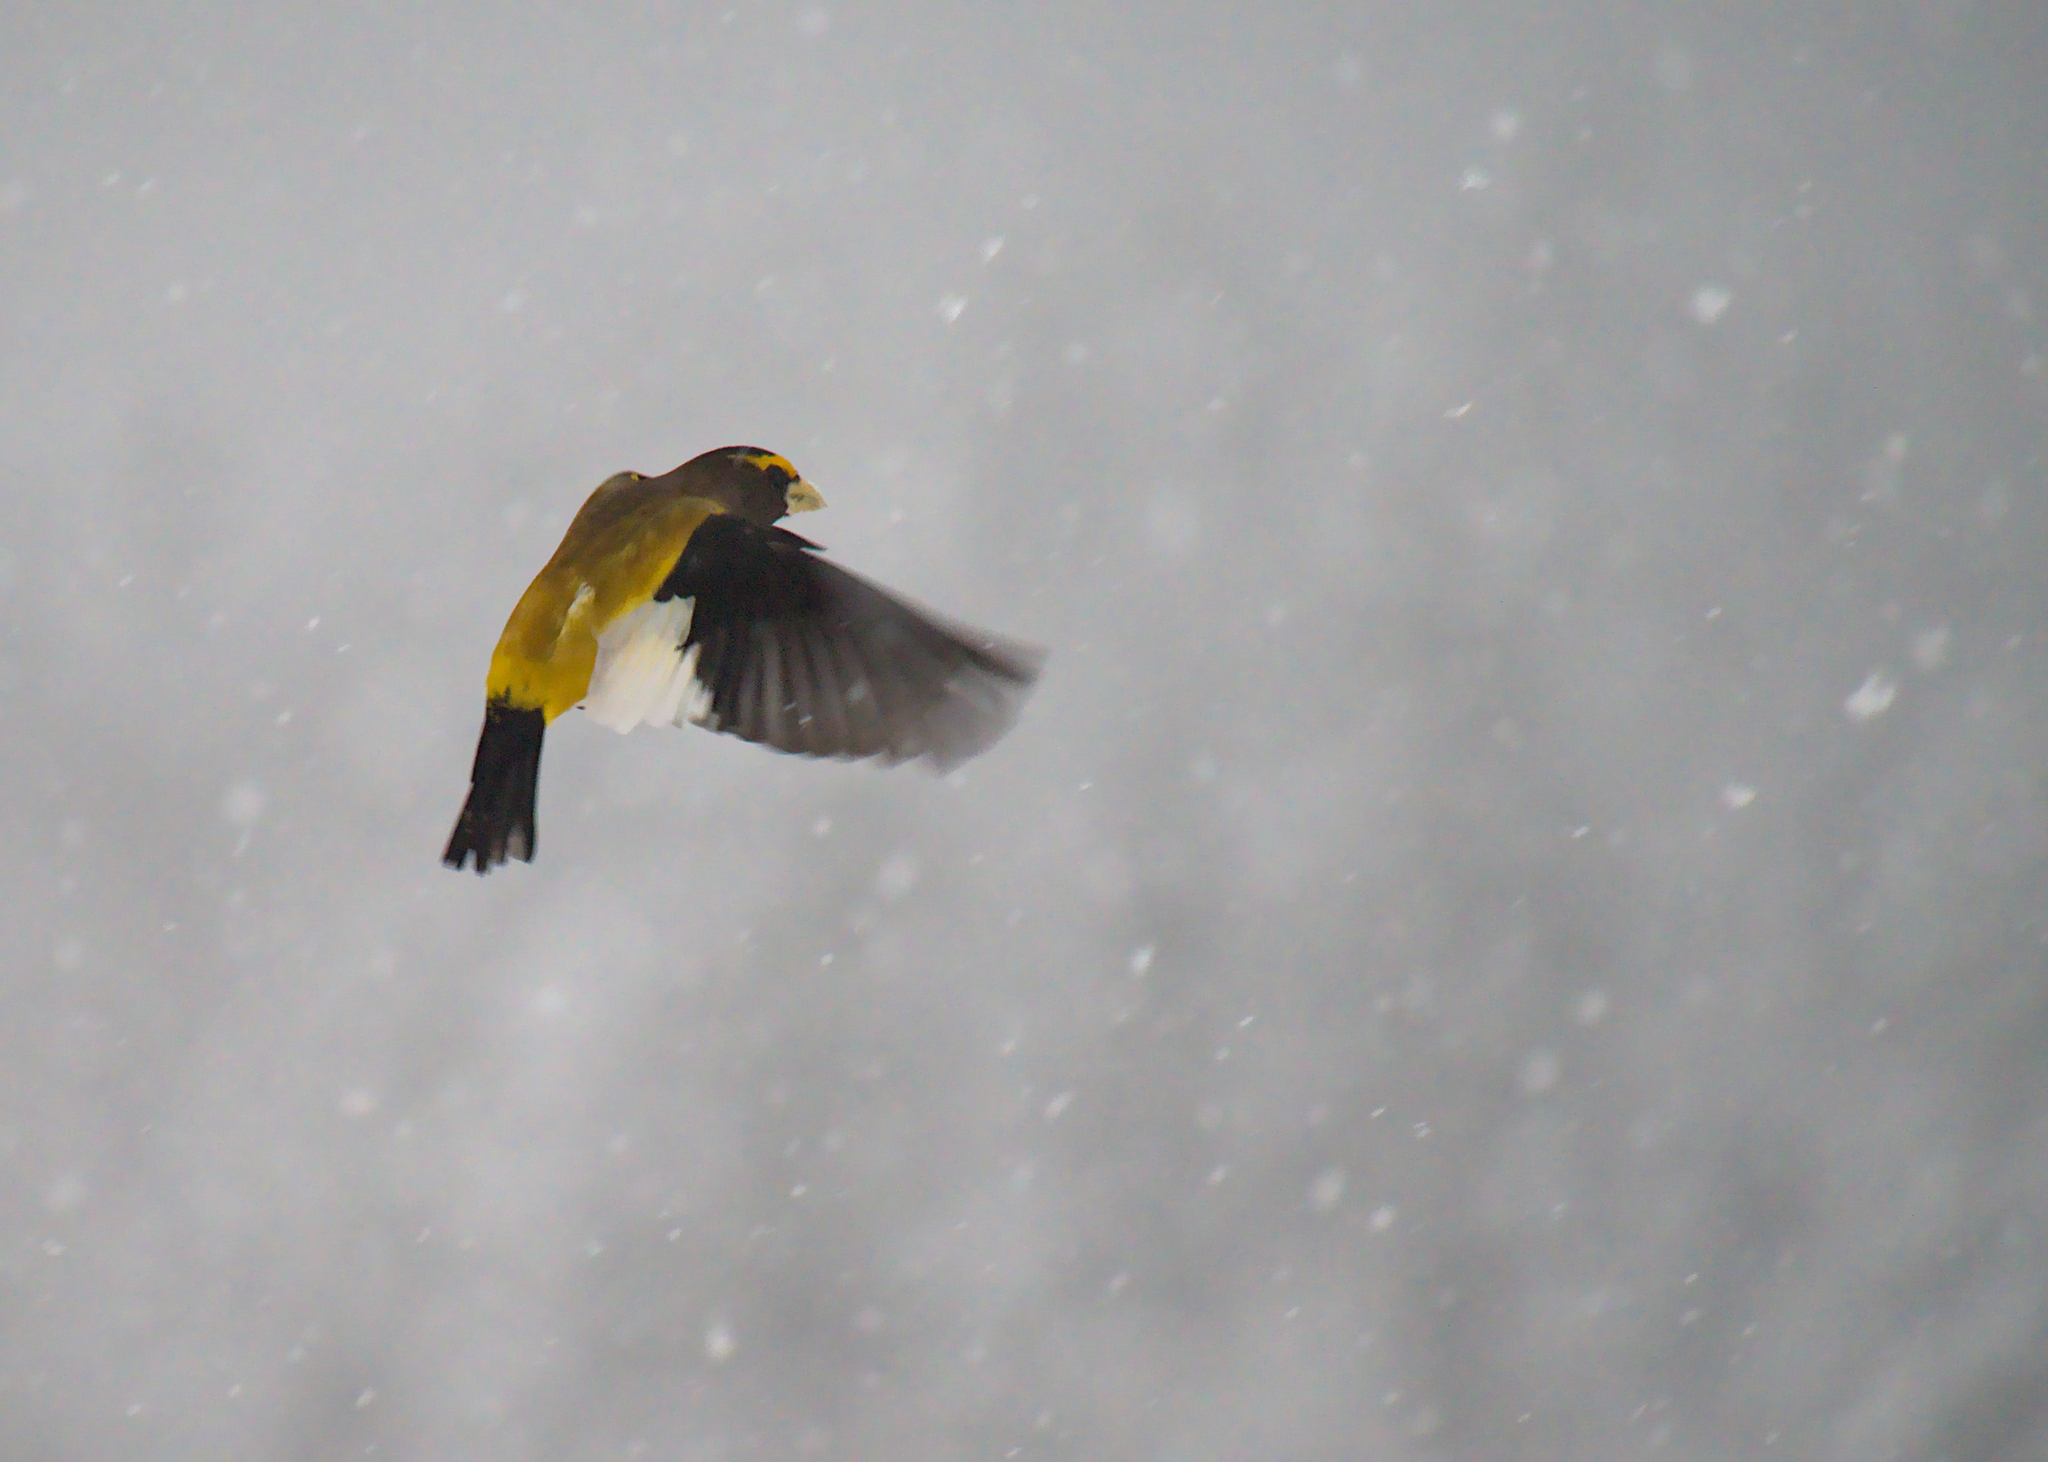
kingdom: Animalia
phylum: Chordata
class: Aves
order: Passeriformes
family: Fringillidae
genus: Hesperiphona
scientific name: Hesperiphona vespertina
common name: Evening grosbeak
